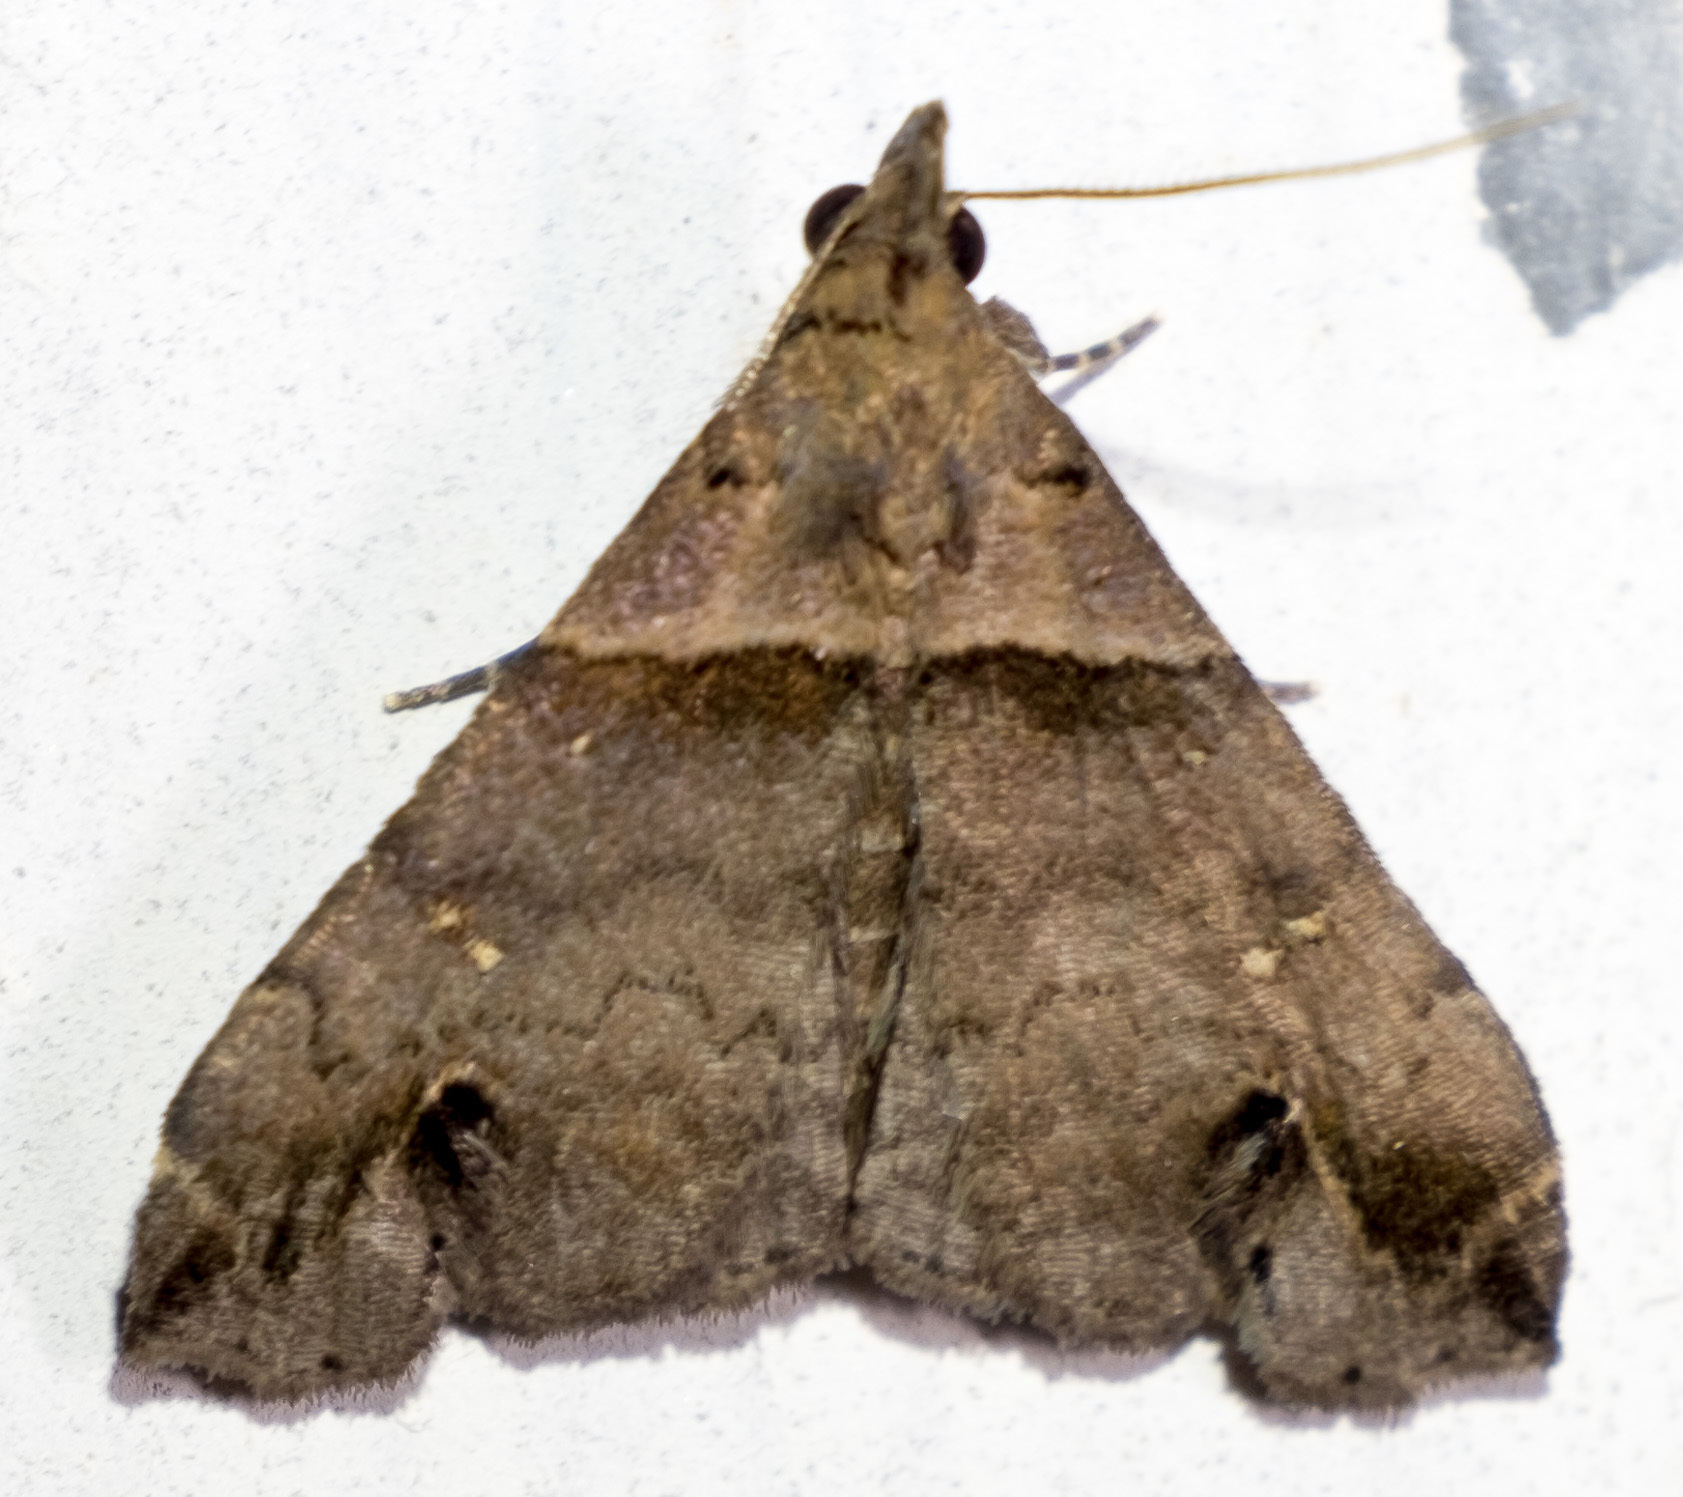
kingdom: Animalia
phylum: Arthropoda
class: Insecta
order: Lepidoptera
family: Erebidae
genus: Lascoria
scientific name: Lascoria ambigualis
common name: Ambiguous moth
